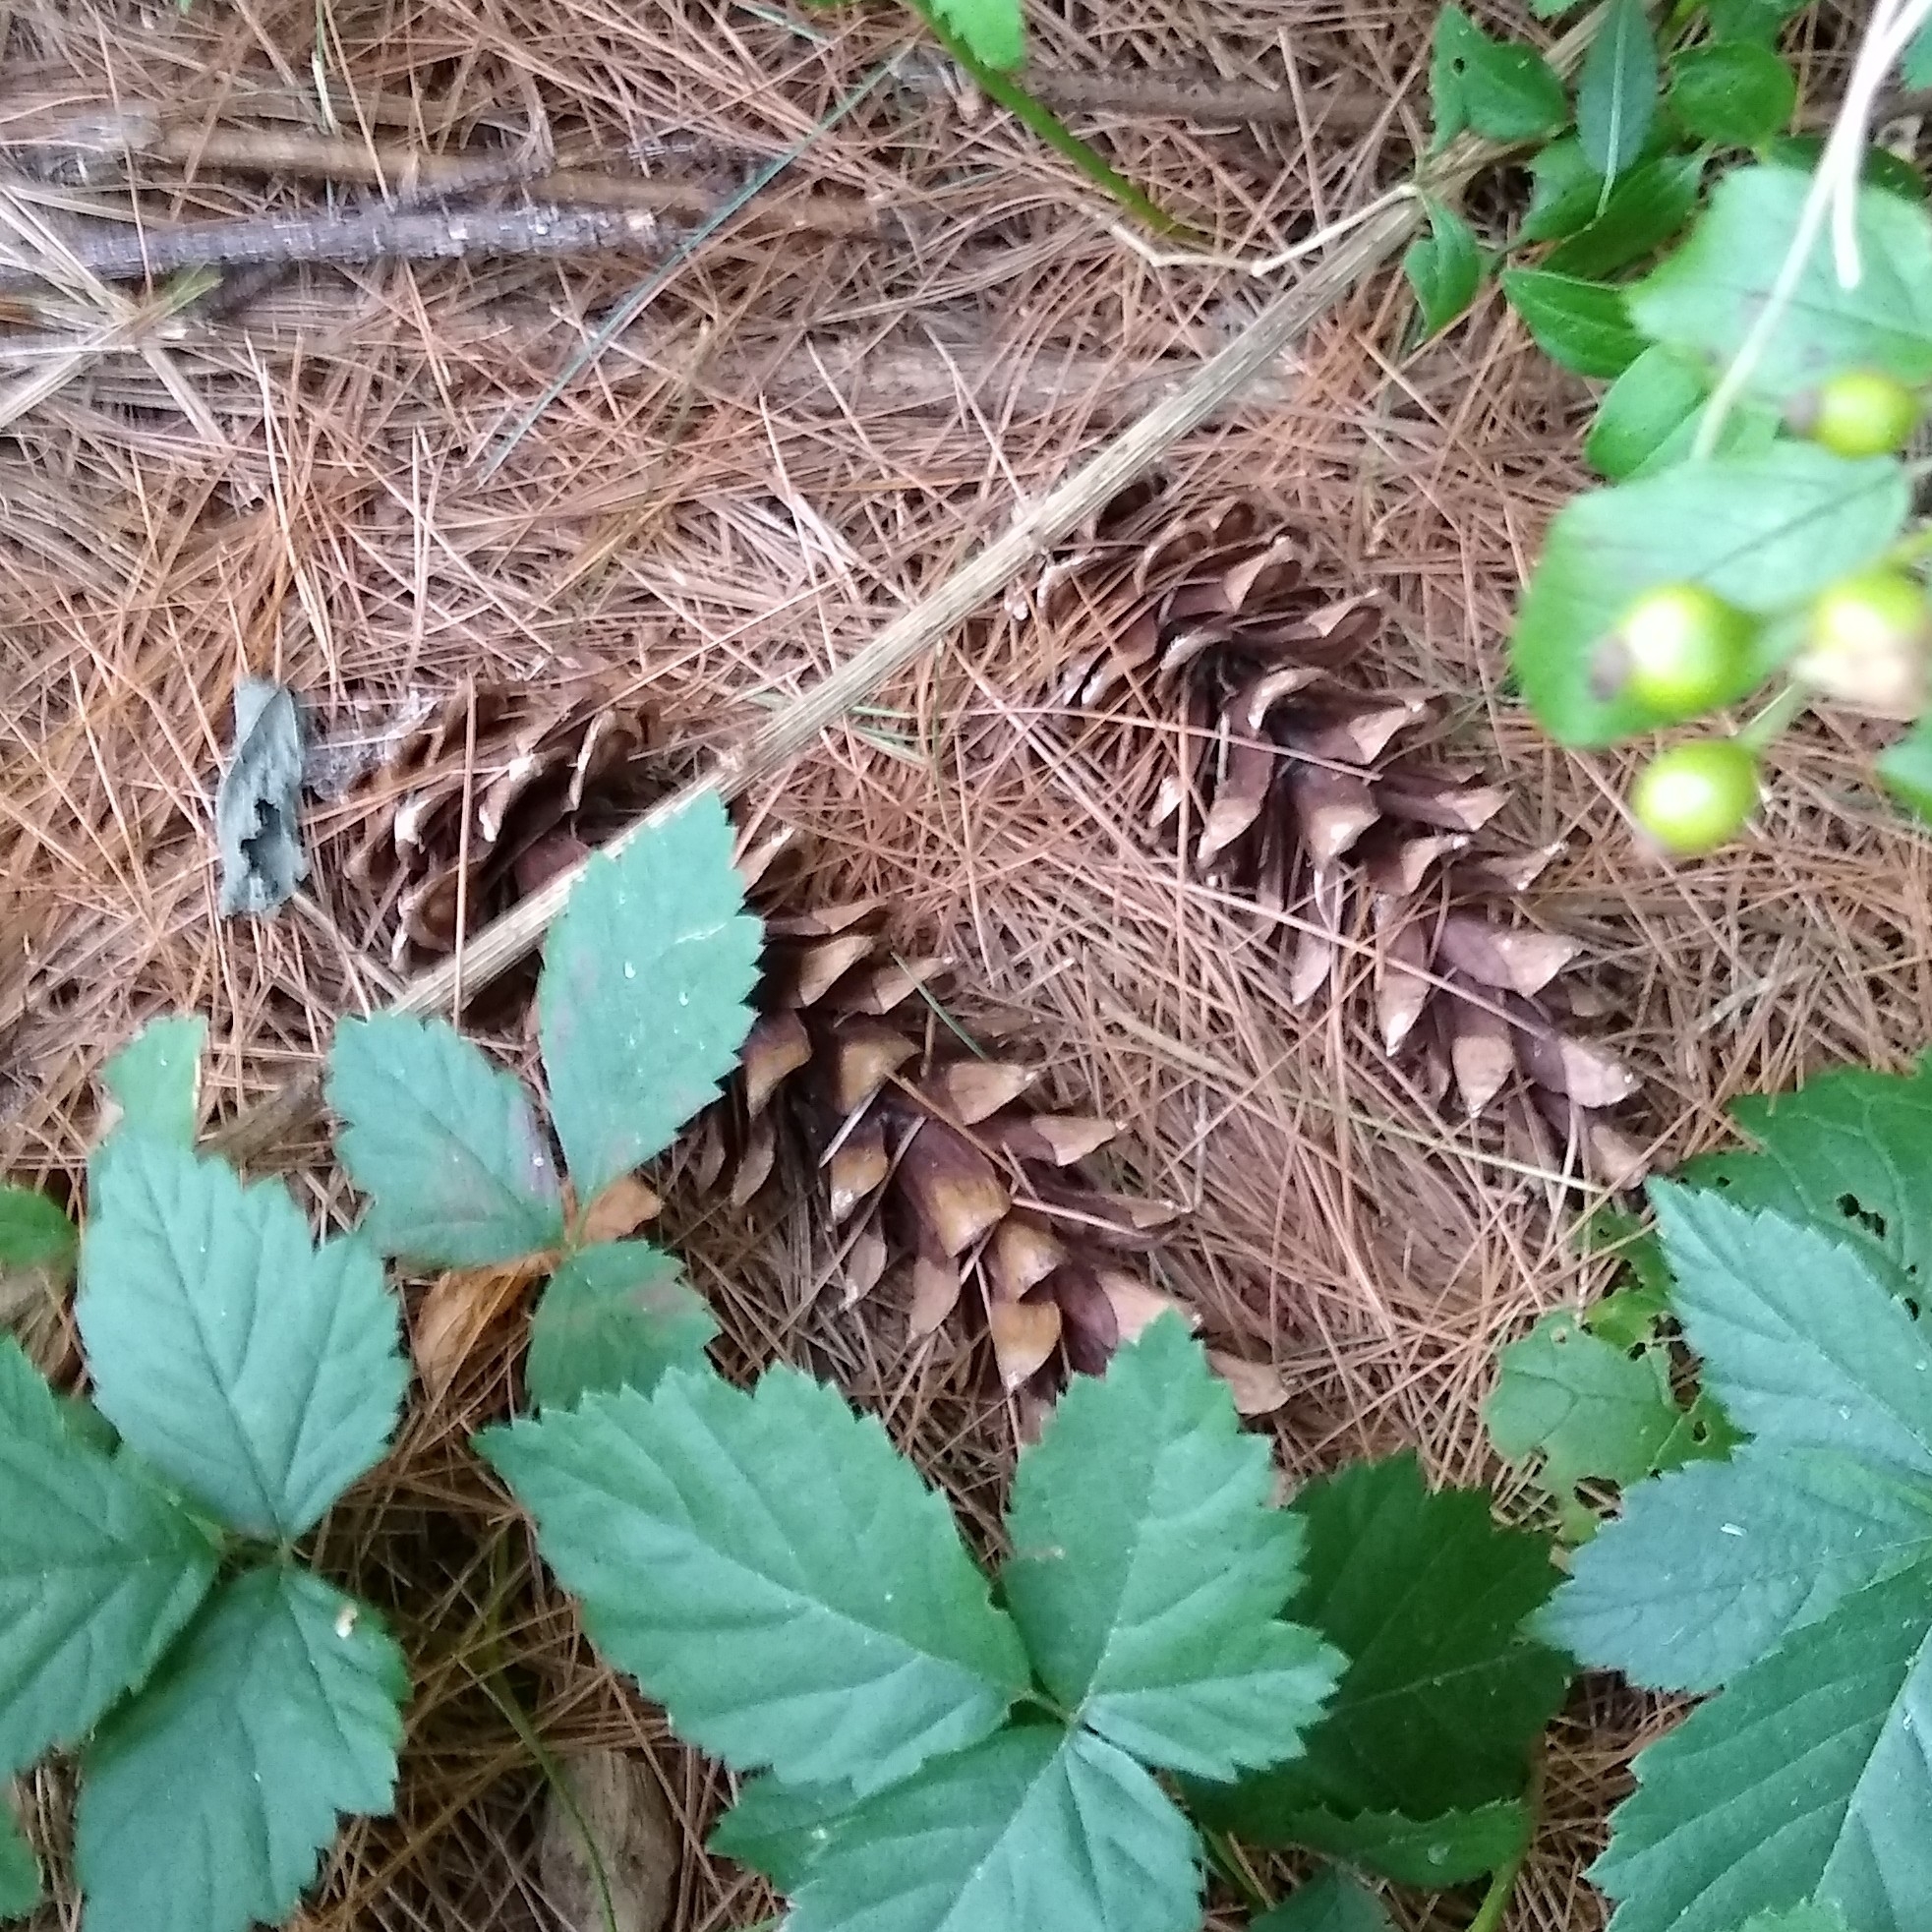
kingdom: Plantae
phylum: Tracheophyta
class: Pinopsida
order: Pinales
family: Pinaceae
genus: Pinus
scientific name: Pinus strobus
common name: Weymouth pine
